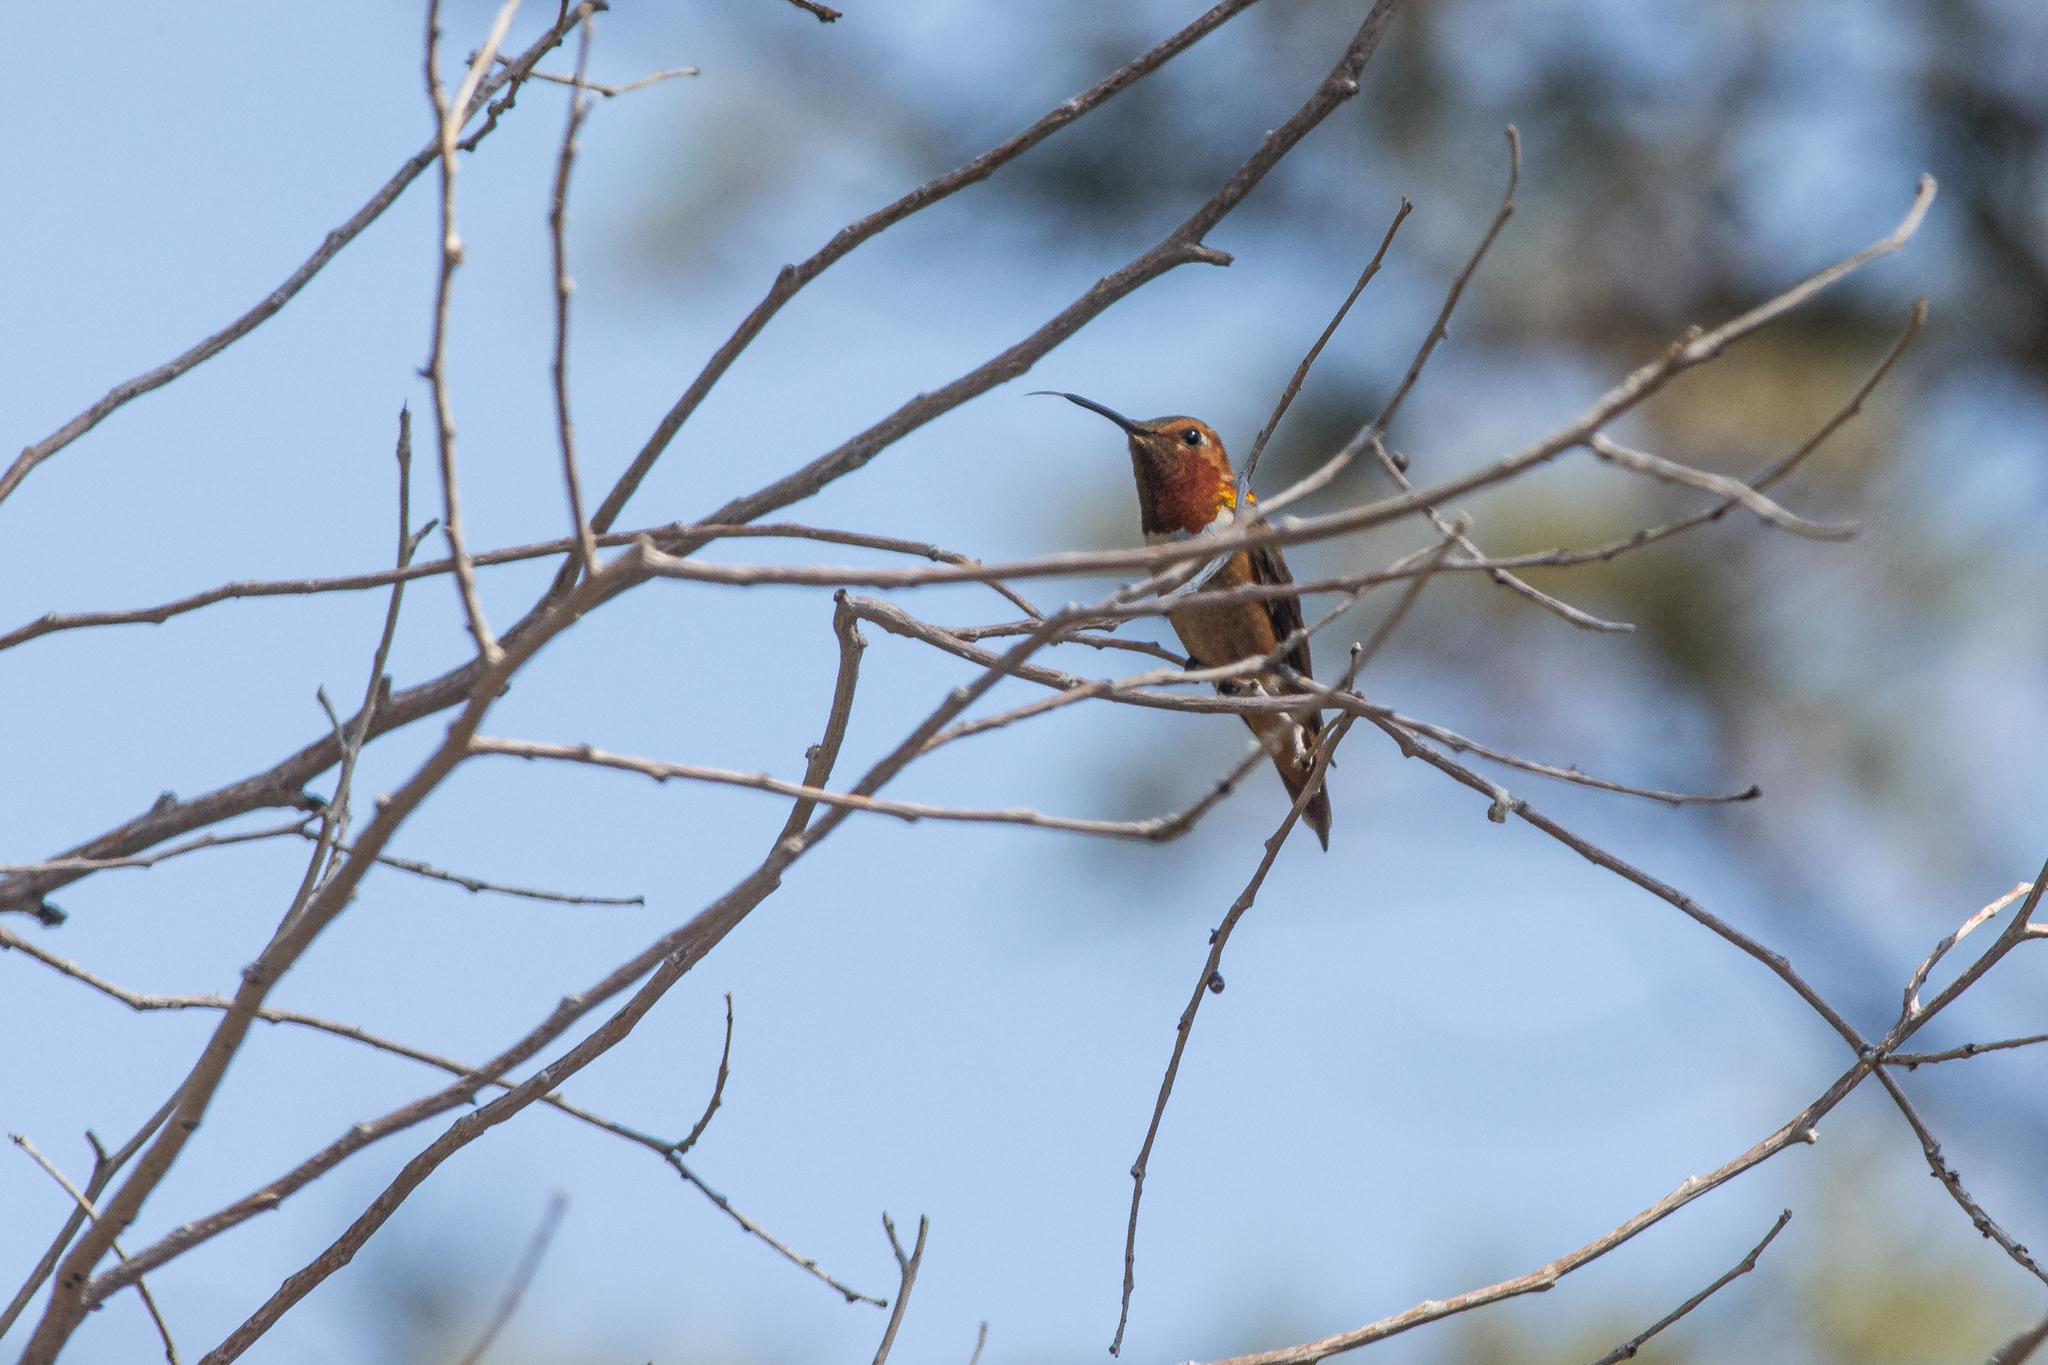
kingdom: Animalia
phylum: Chordata
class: Aves
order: Apodiformes
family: Trochilidae
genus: Selasphorus
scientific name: Selasphorus rufus
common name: Rufous hummingbird
